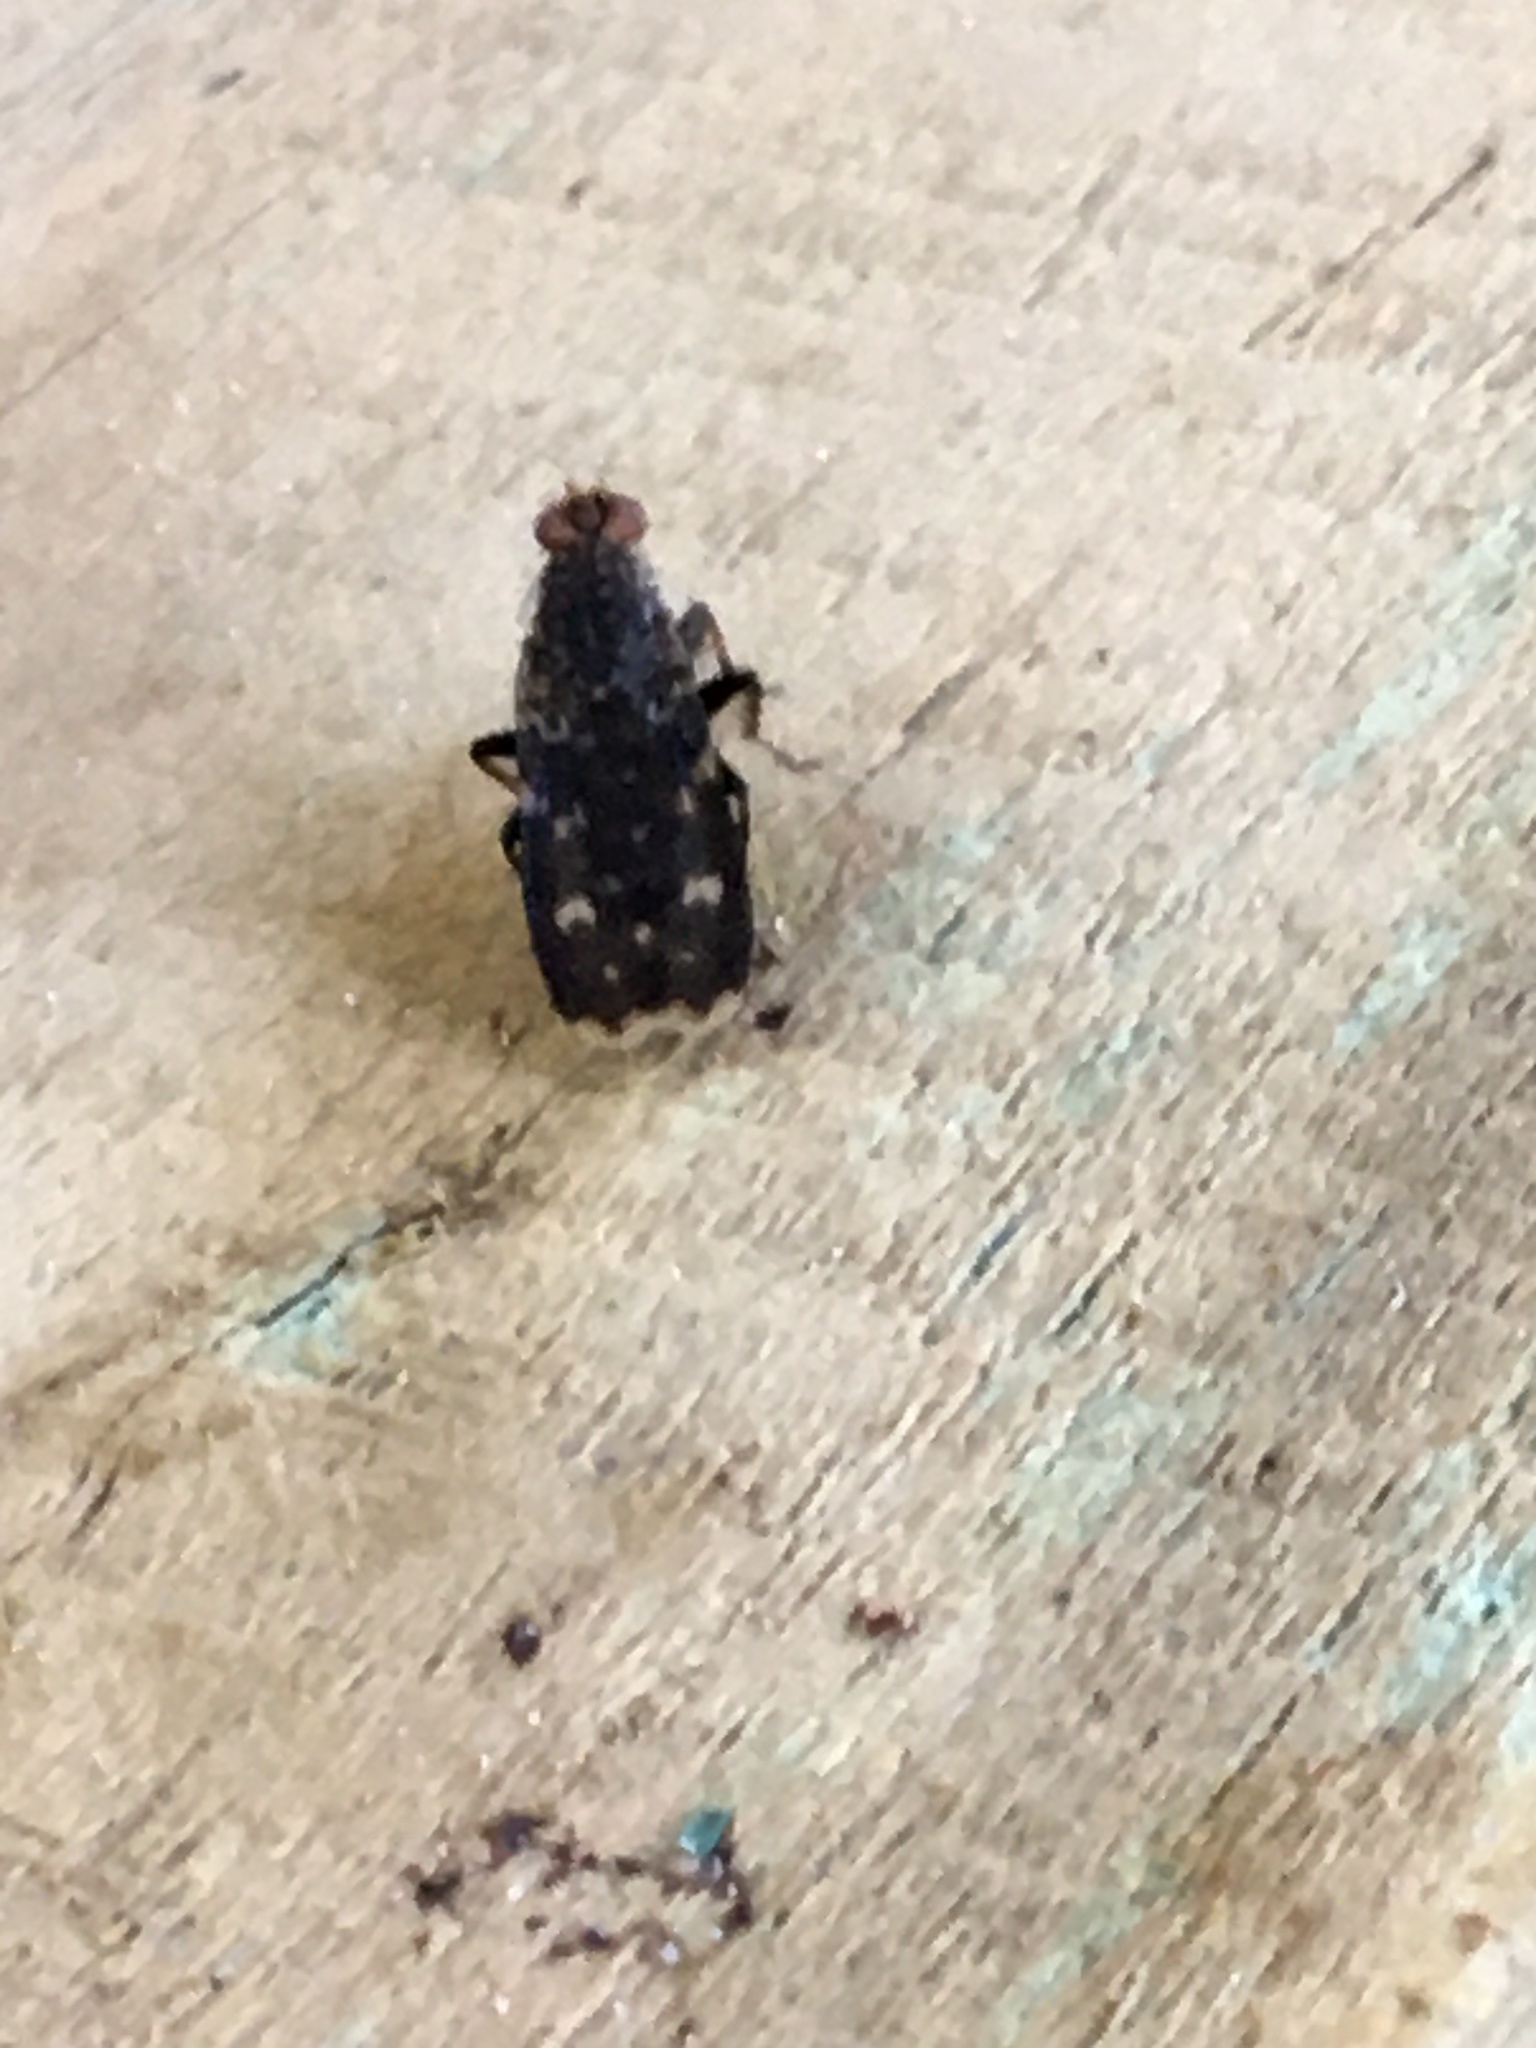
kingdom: Animalia
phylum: Arthropoda
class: Insecta
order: Diptera
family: Heleomyzidae
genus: Suillia
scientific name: Suillia picta
